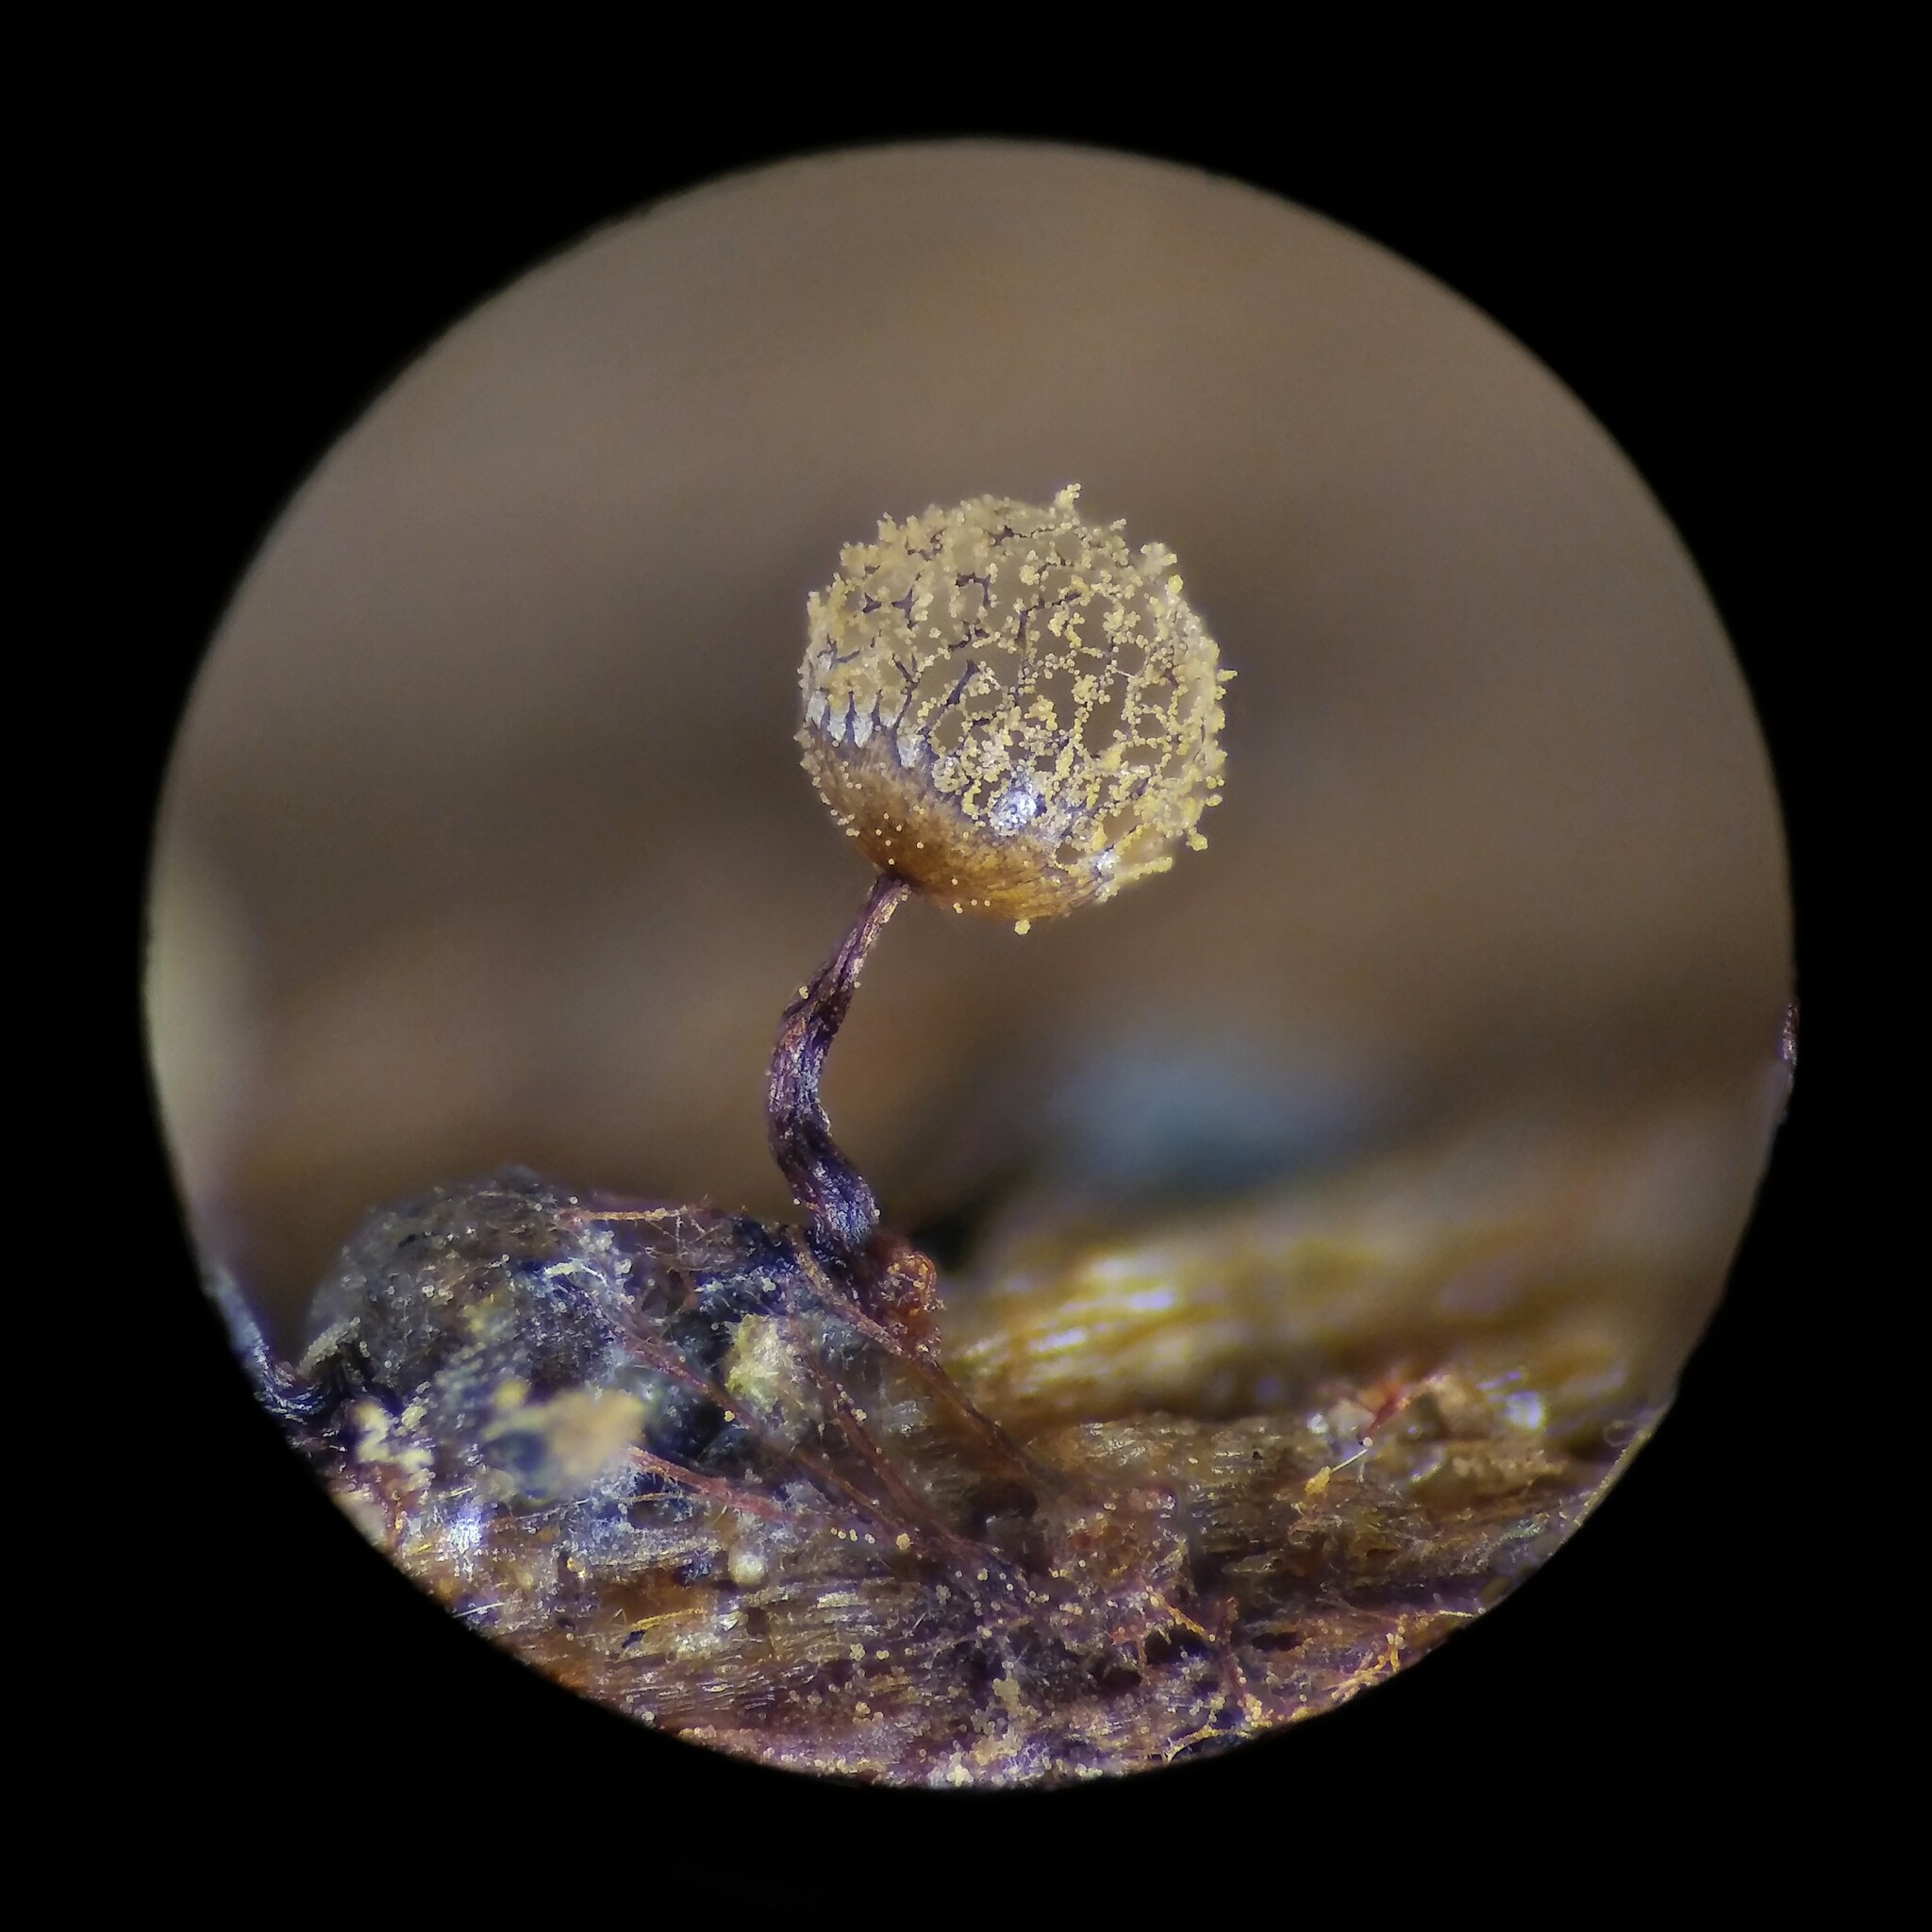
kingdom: Protozoa
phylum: Mycetozoa
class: Myxomycetes
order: Cribrariales
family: Cribrariaceae
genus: Cribraria
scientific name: Cribraria vulgaris
